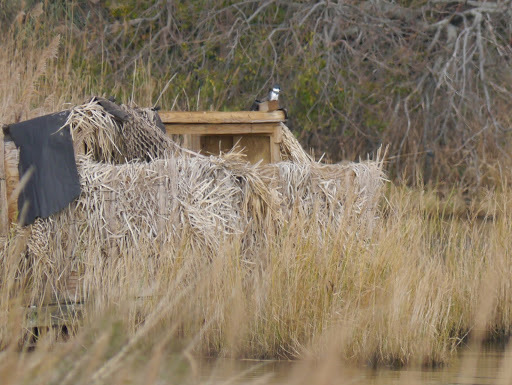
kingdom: Animalia
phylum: Chordata
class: Aves
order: Coraciiformes
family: Alcedinidae
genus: Megaceryle
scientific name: Megaceryle alcyon
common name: Belted kingfisher
